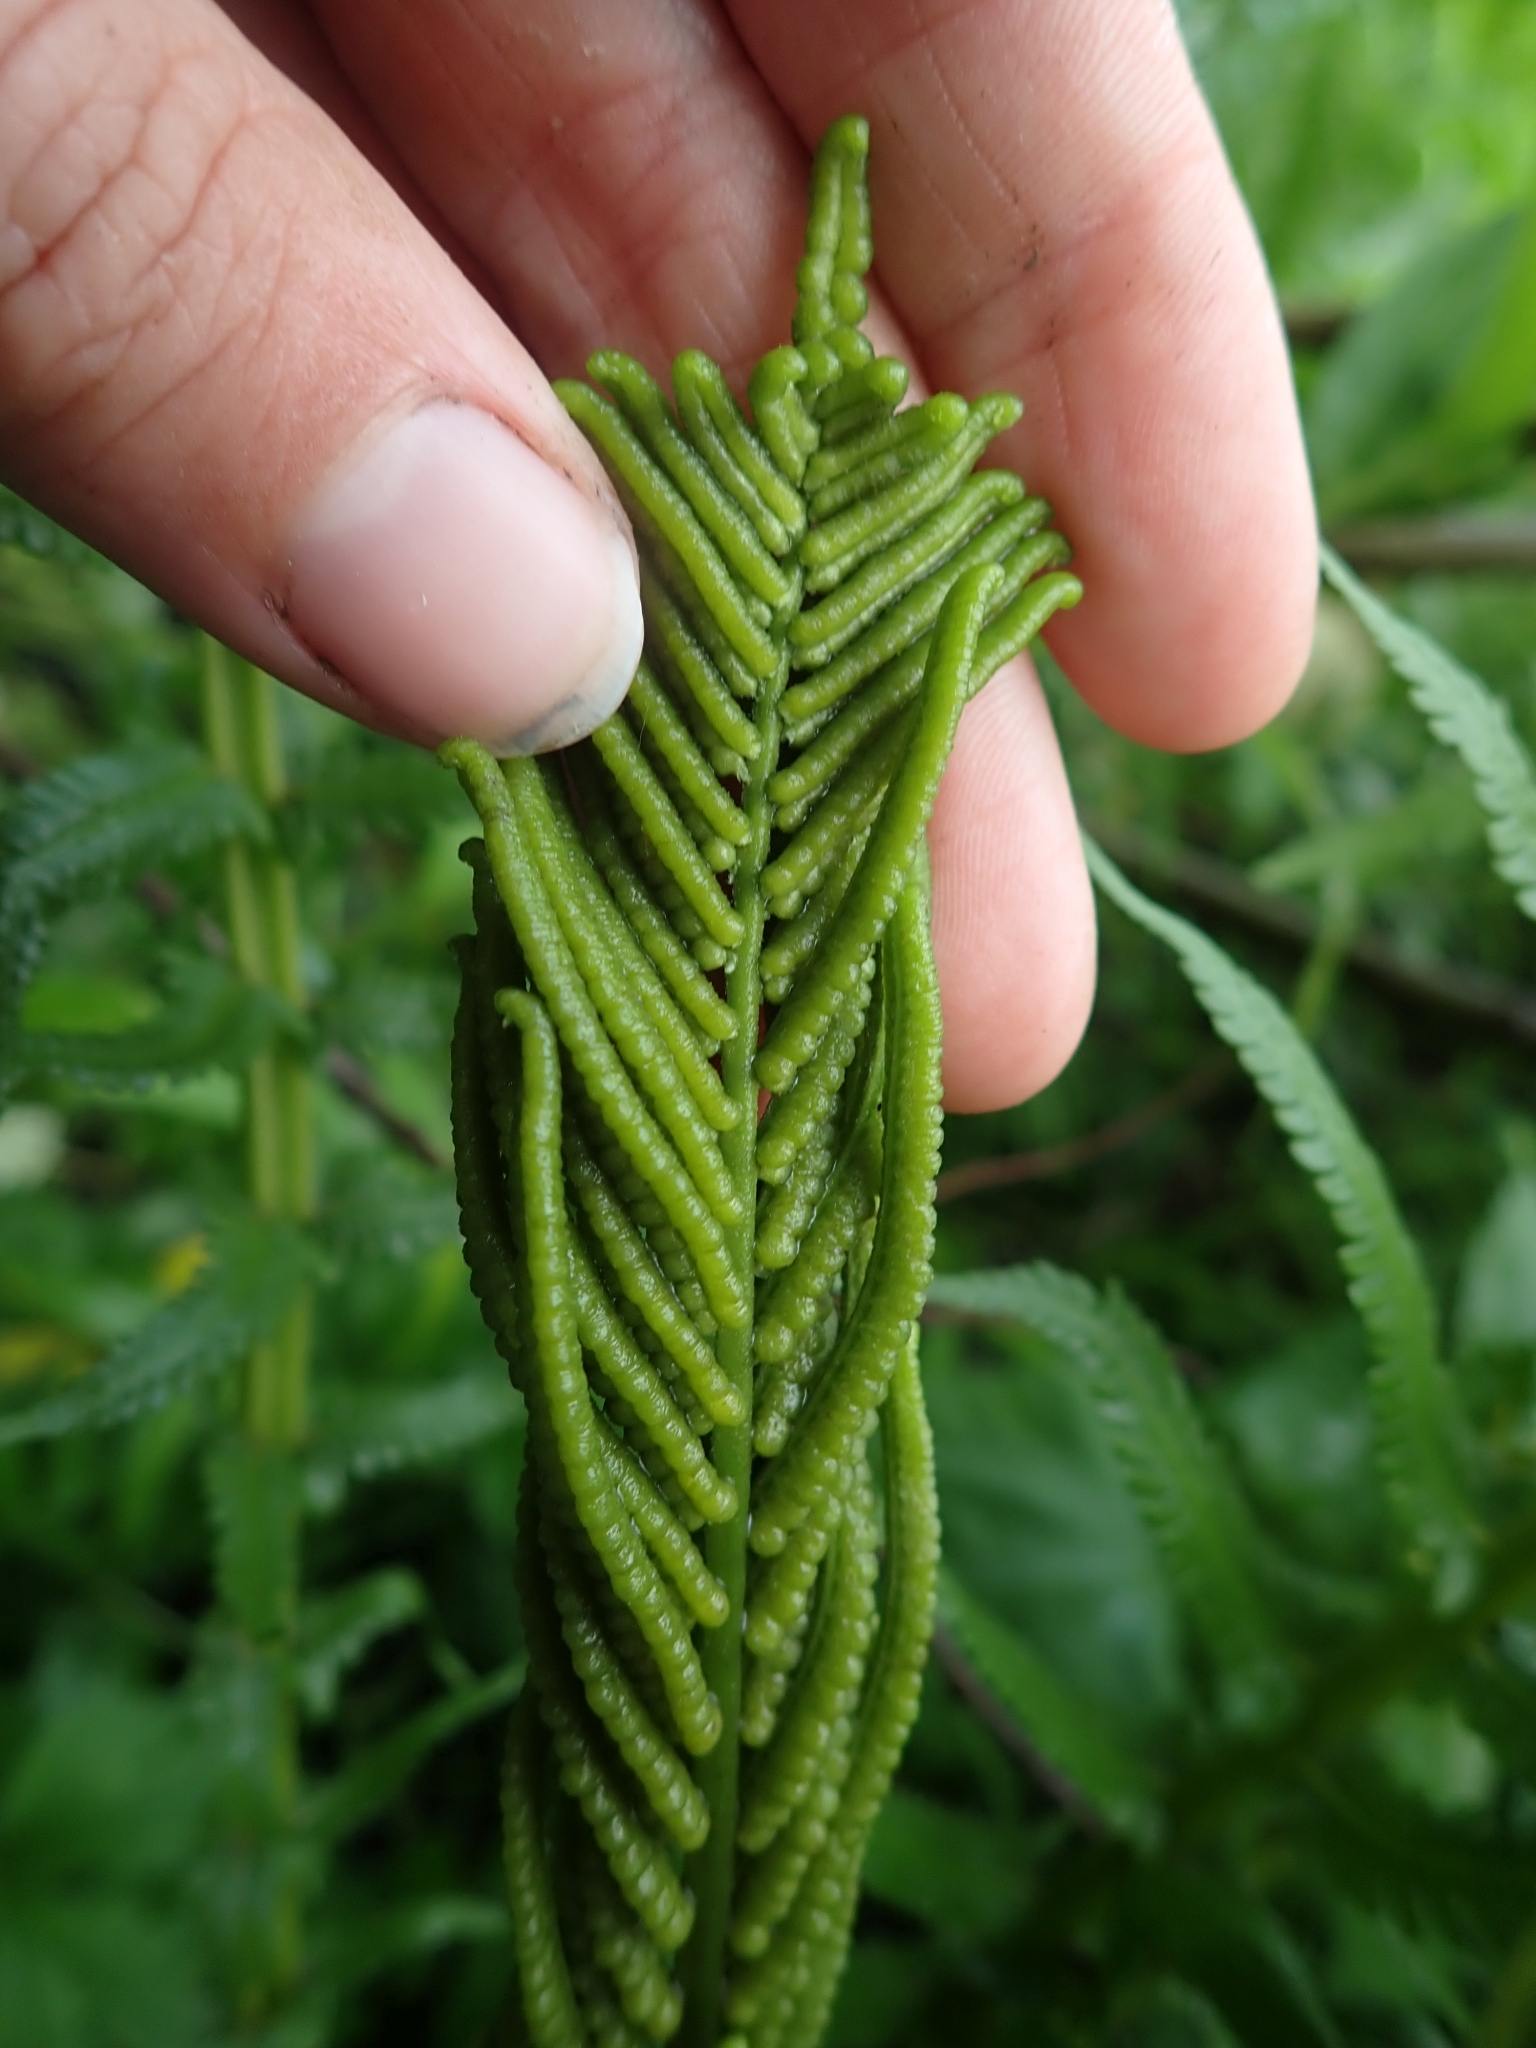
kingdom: Plantae
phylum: Tracheophyta
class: Polypodiopsida
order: Polypodiales
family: Onocleaceae
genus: Matteuccia
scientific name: Matteuccia struthiopteris
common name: Ostrich fern
